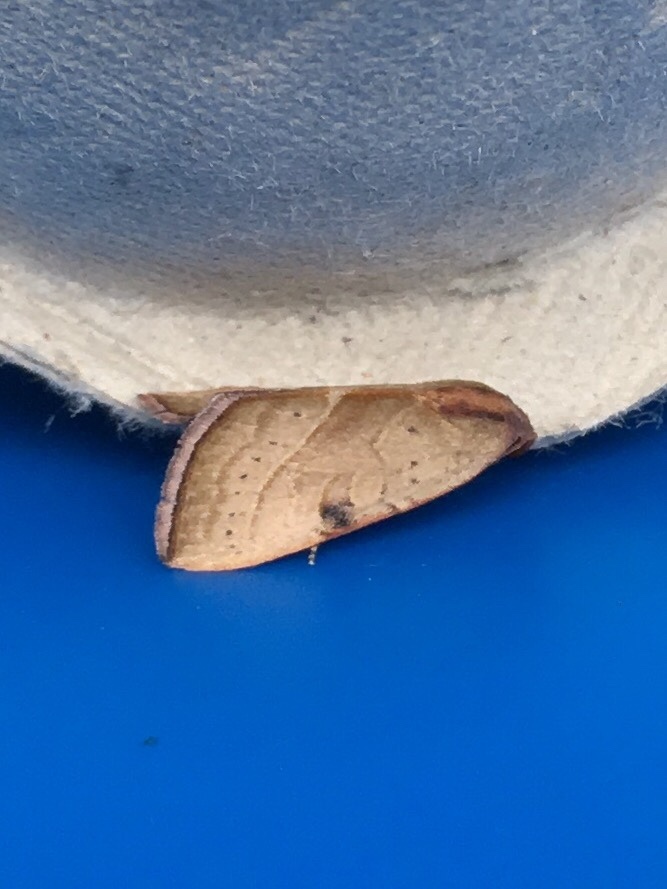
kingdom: Animalia
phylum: Arthropoda
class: Insecta
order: Lepidoptera
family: Noctuidae
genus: Galgula
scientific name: Galgula partita
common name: Wedgeling
